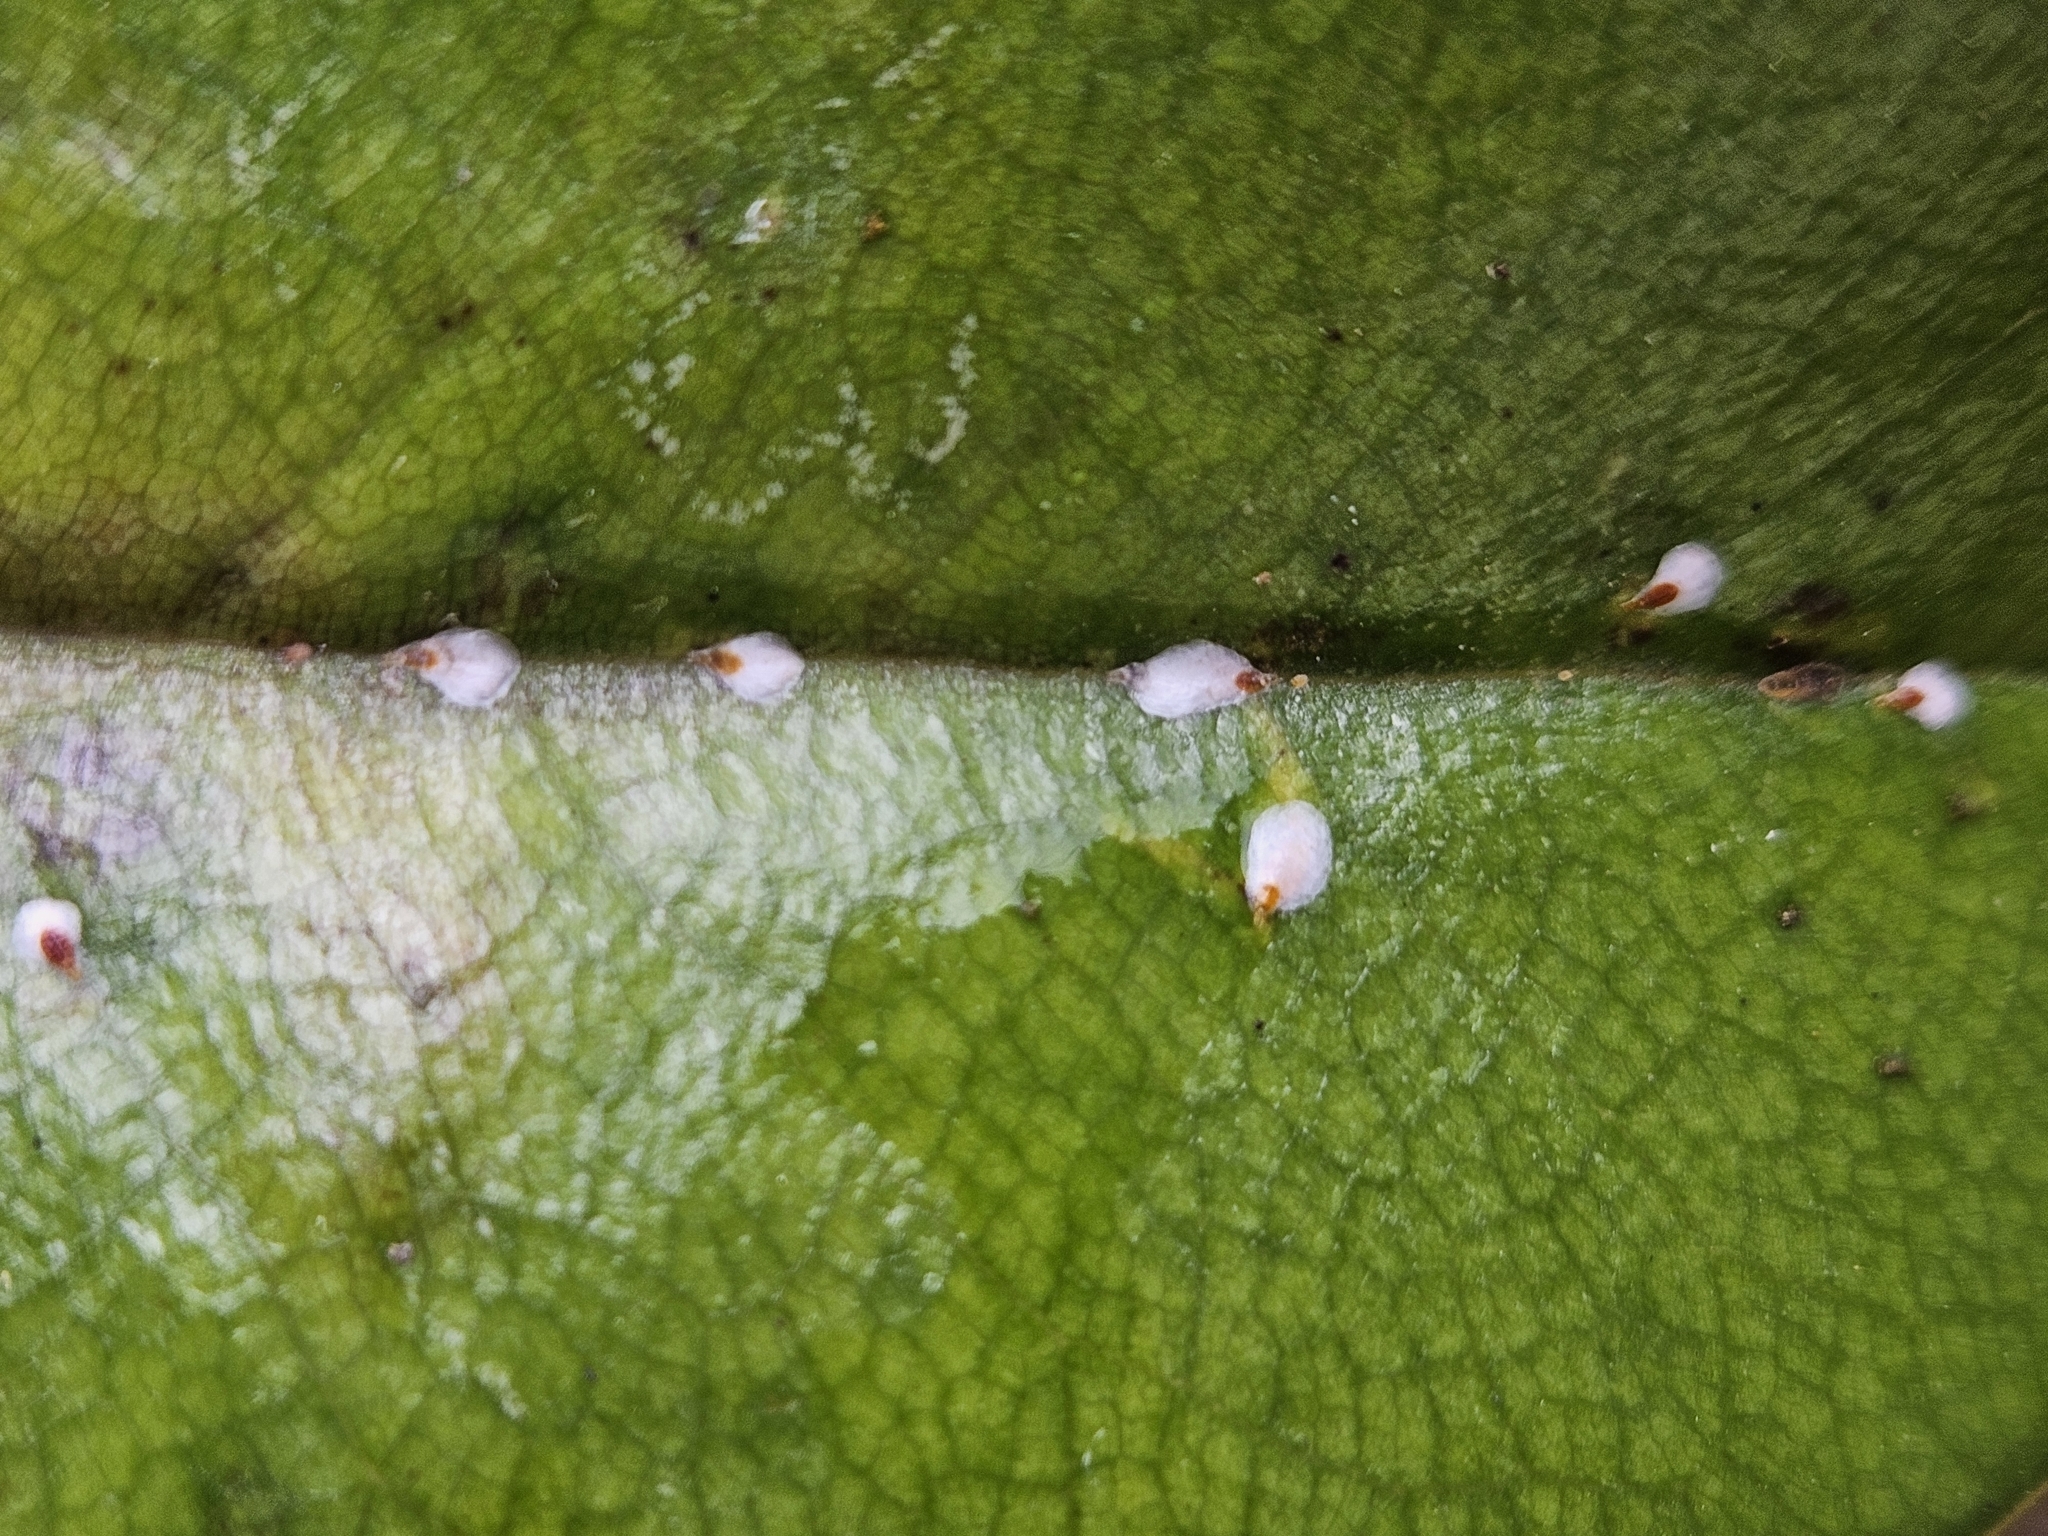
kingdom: Animalia
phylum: Arthropoda
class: Insecta
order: Hemiptera
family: Diaspididae
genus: Pseudaulacaspis
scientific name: Pseudaulacaspis cockerelli
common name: False oleander scale
